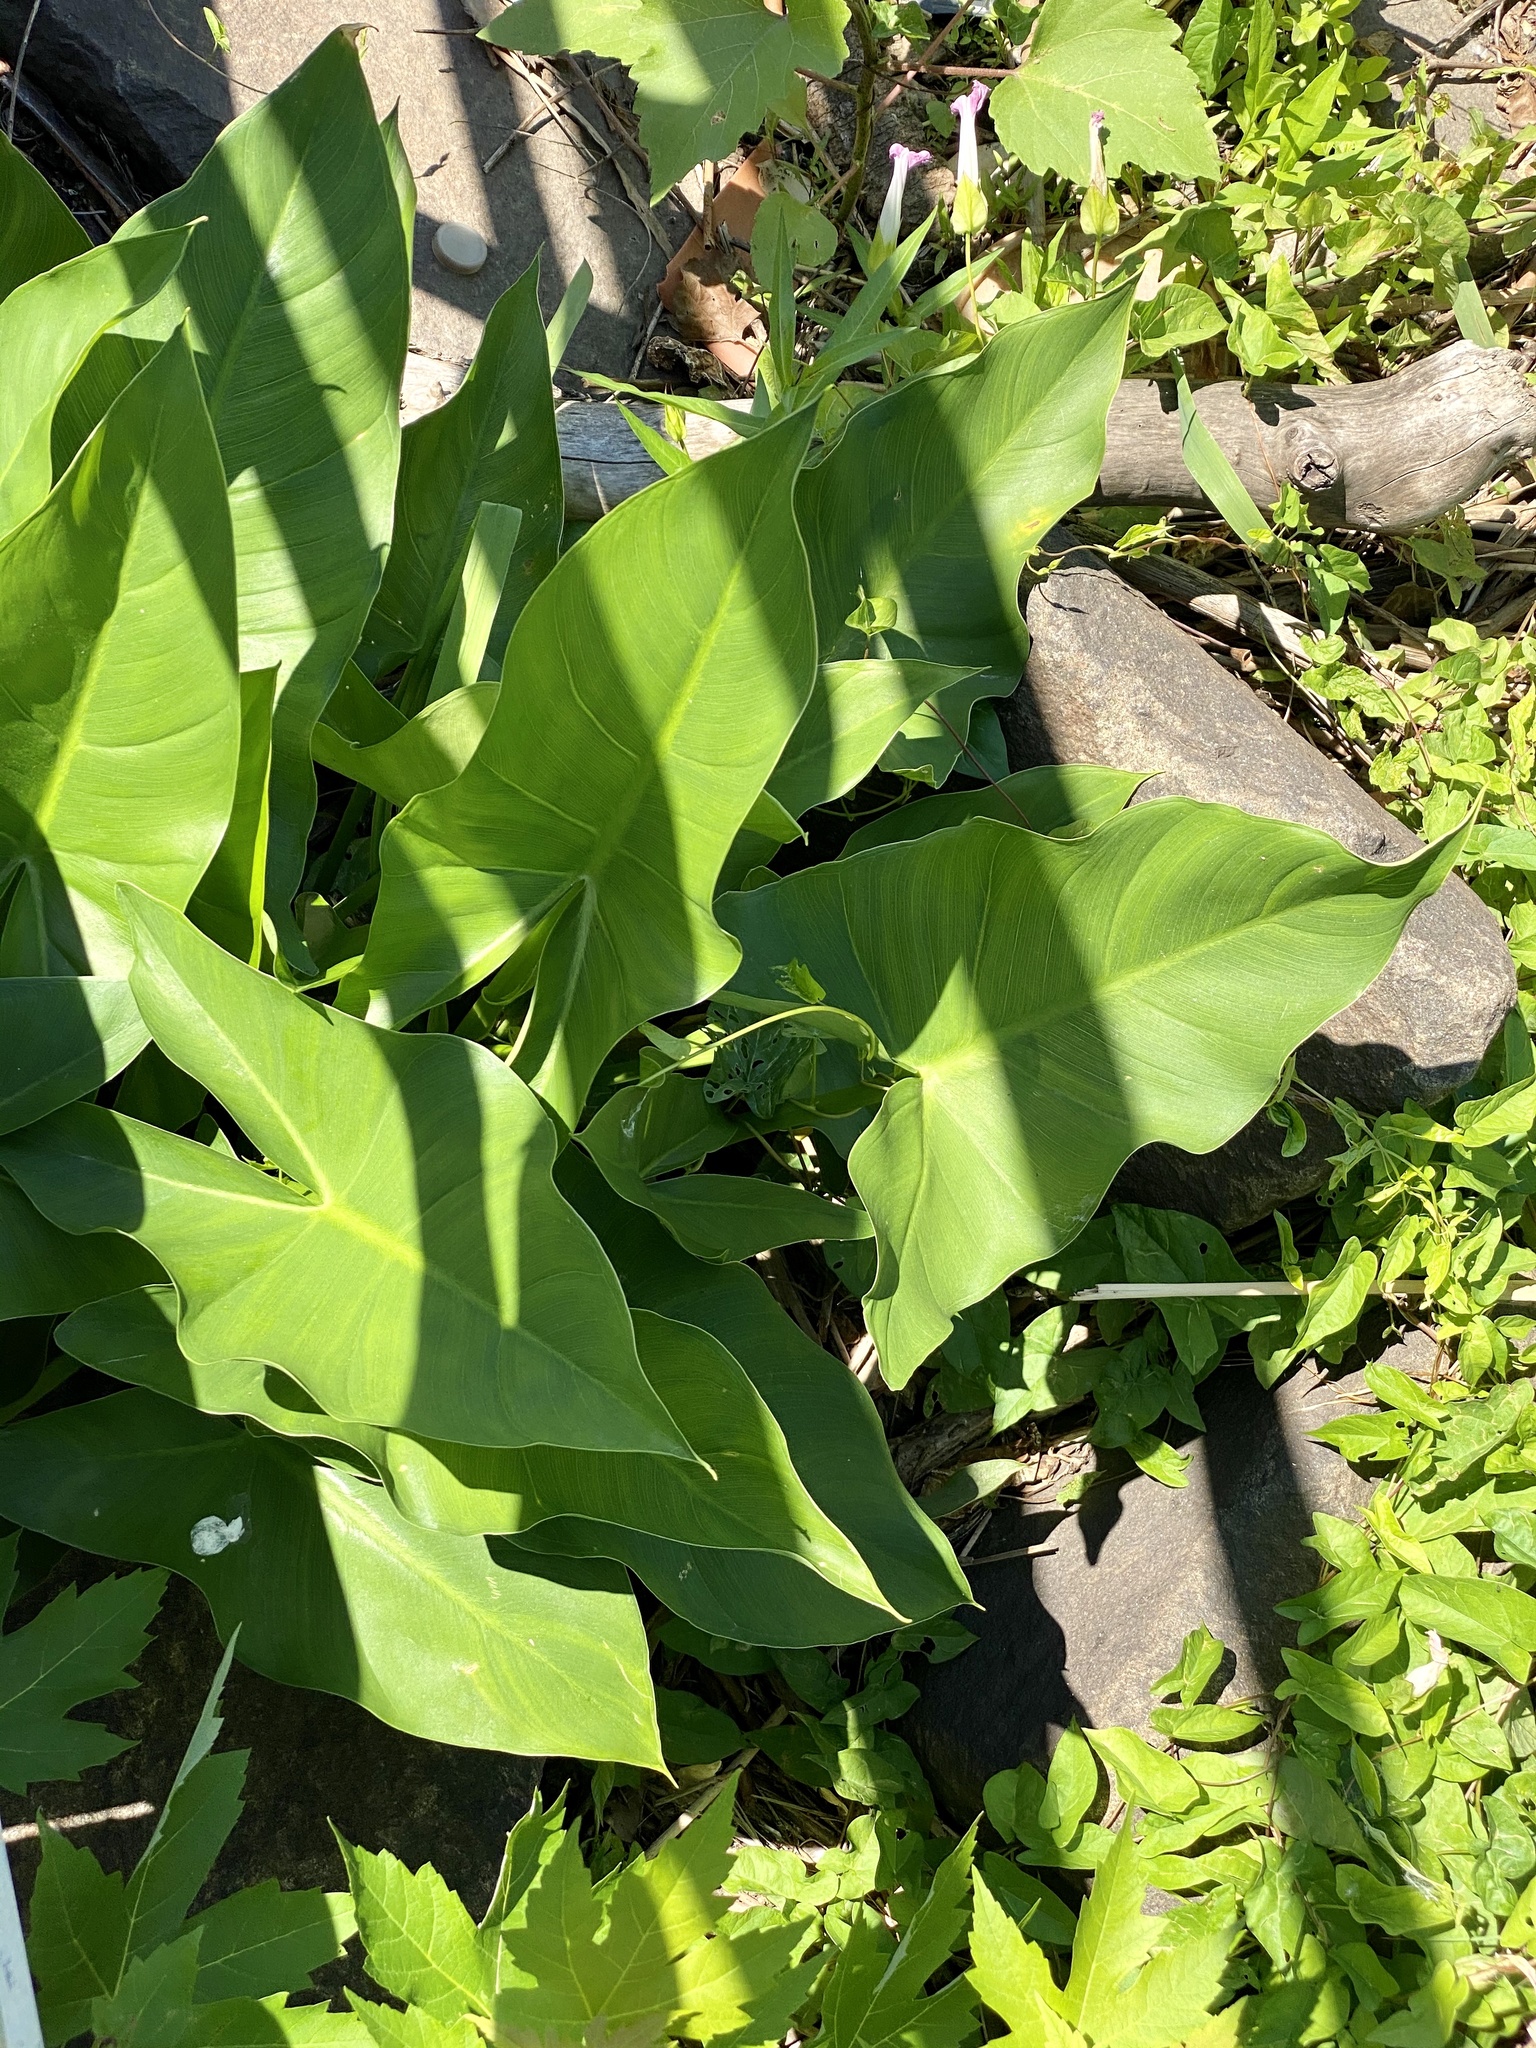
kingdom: Plantae
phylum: Tracheophyta
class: Liliopsida
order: Alismatales
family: Araceae
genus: Peltandra
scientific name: Peltandra virginica
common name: Arrow arum
